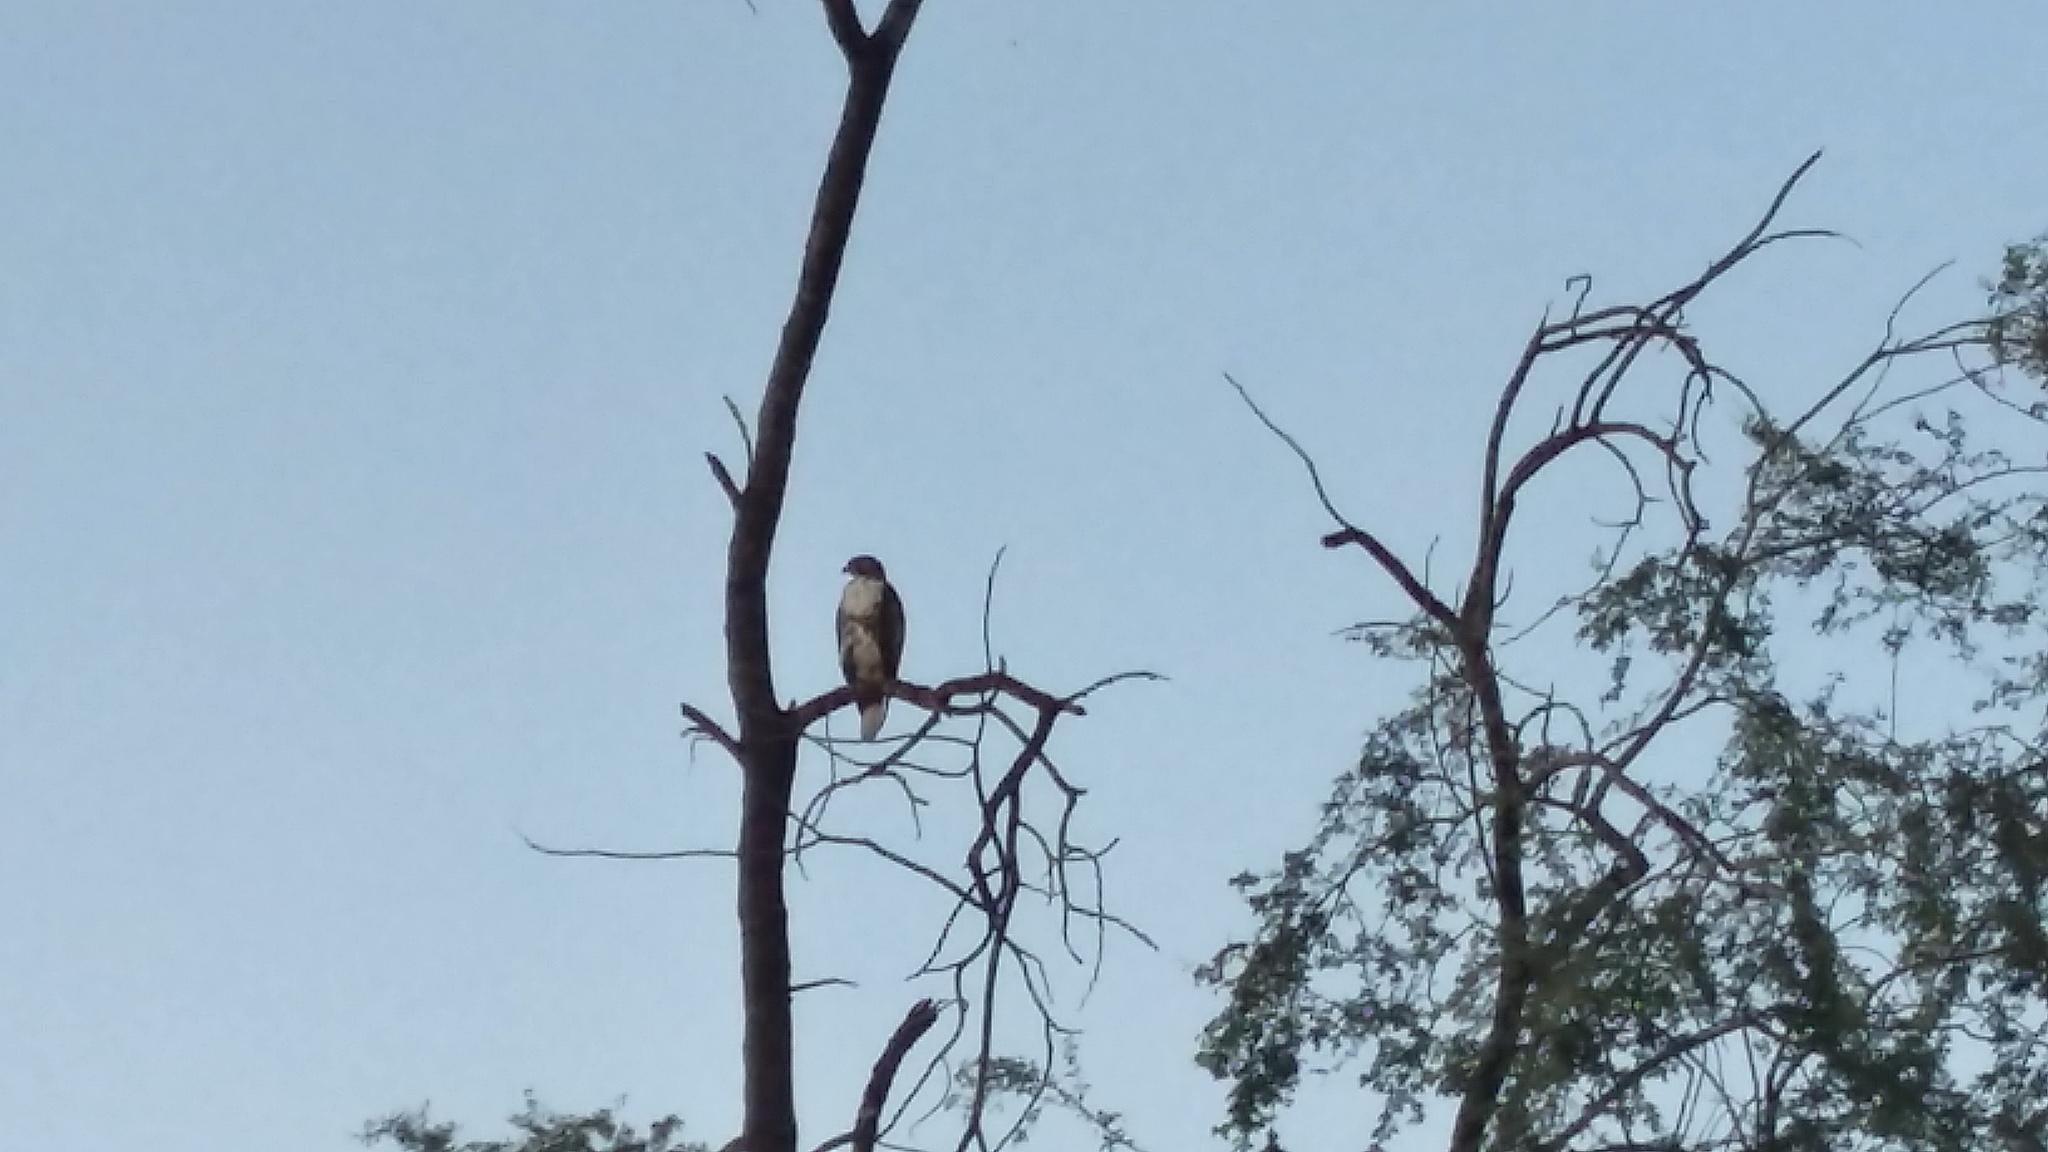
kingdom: Animalia
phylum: Chordata
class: Aves
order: Accipitriformes
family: Accipitridae
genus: Buteo
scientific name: Buteo jamaicensis
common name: Red-tailed hawk
